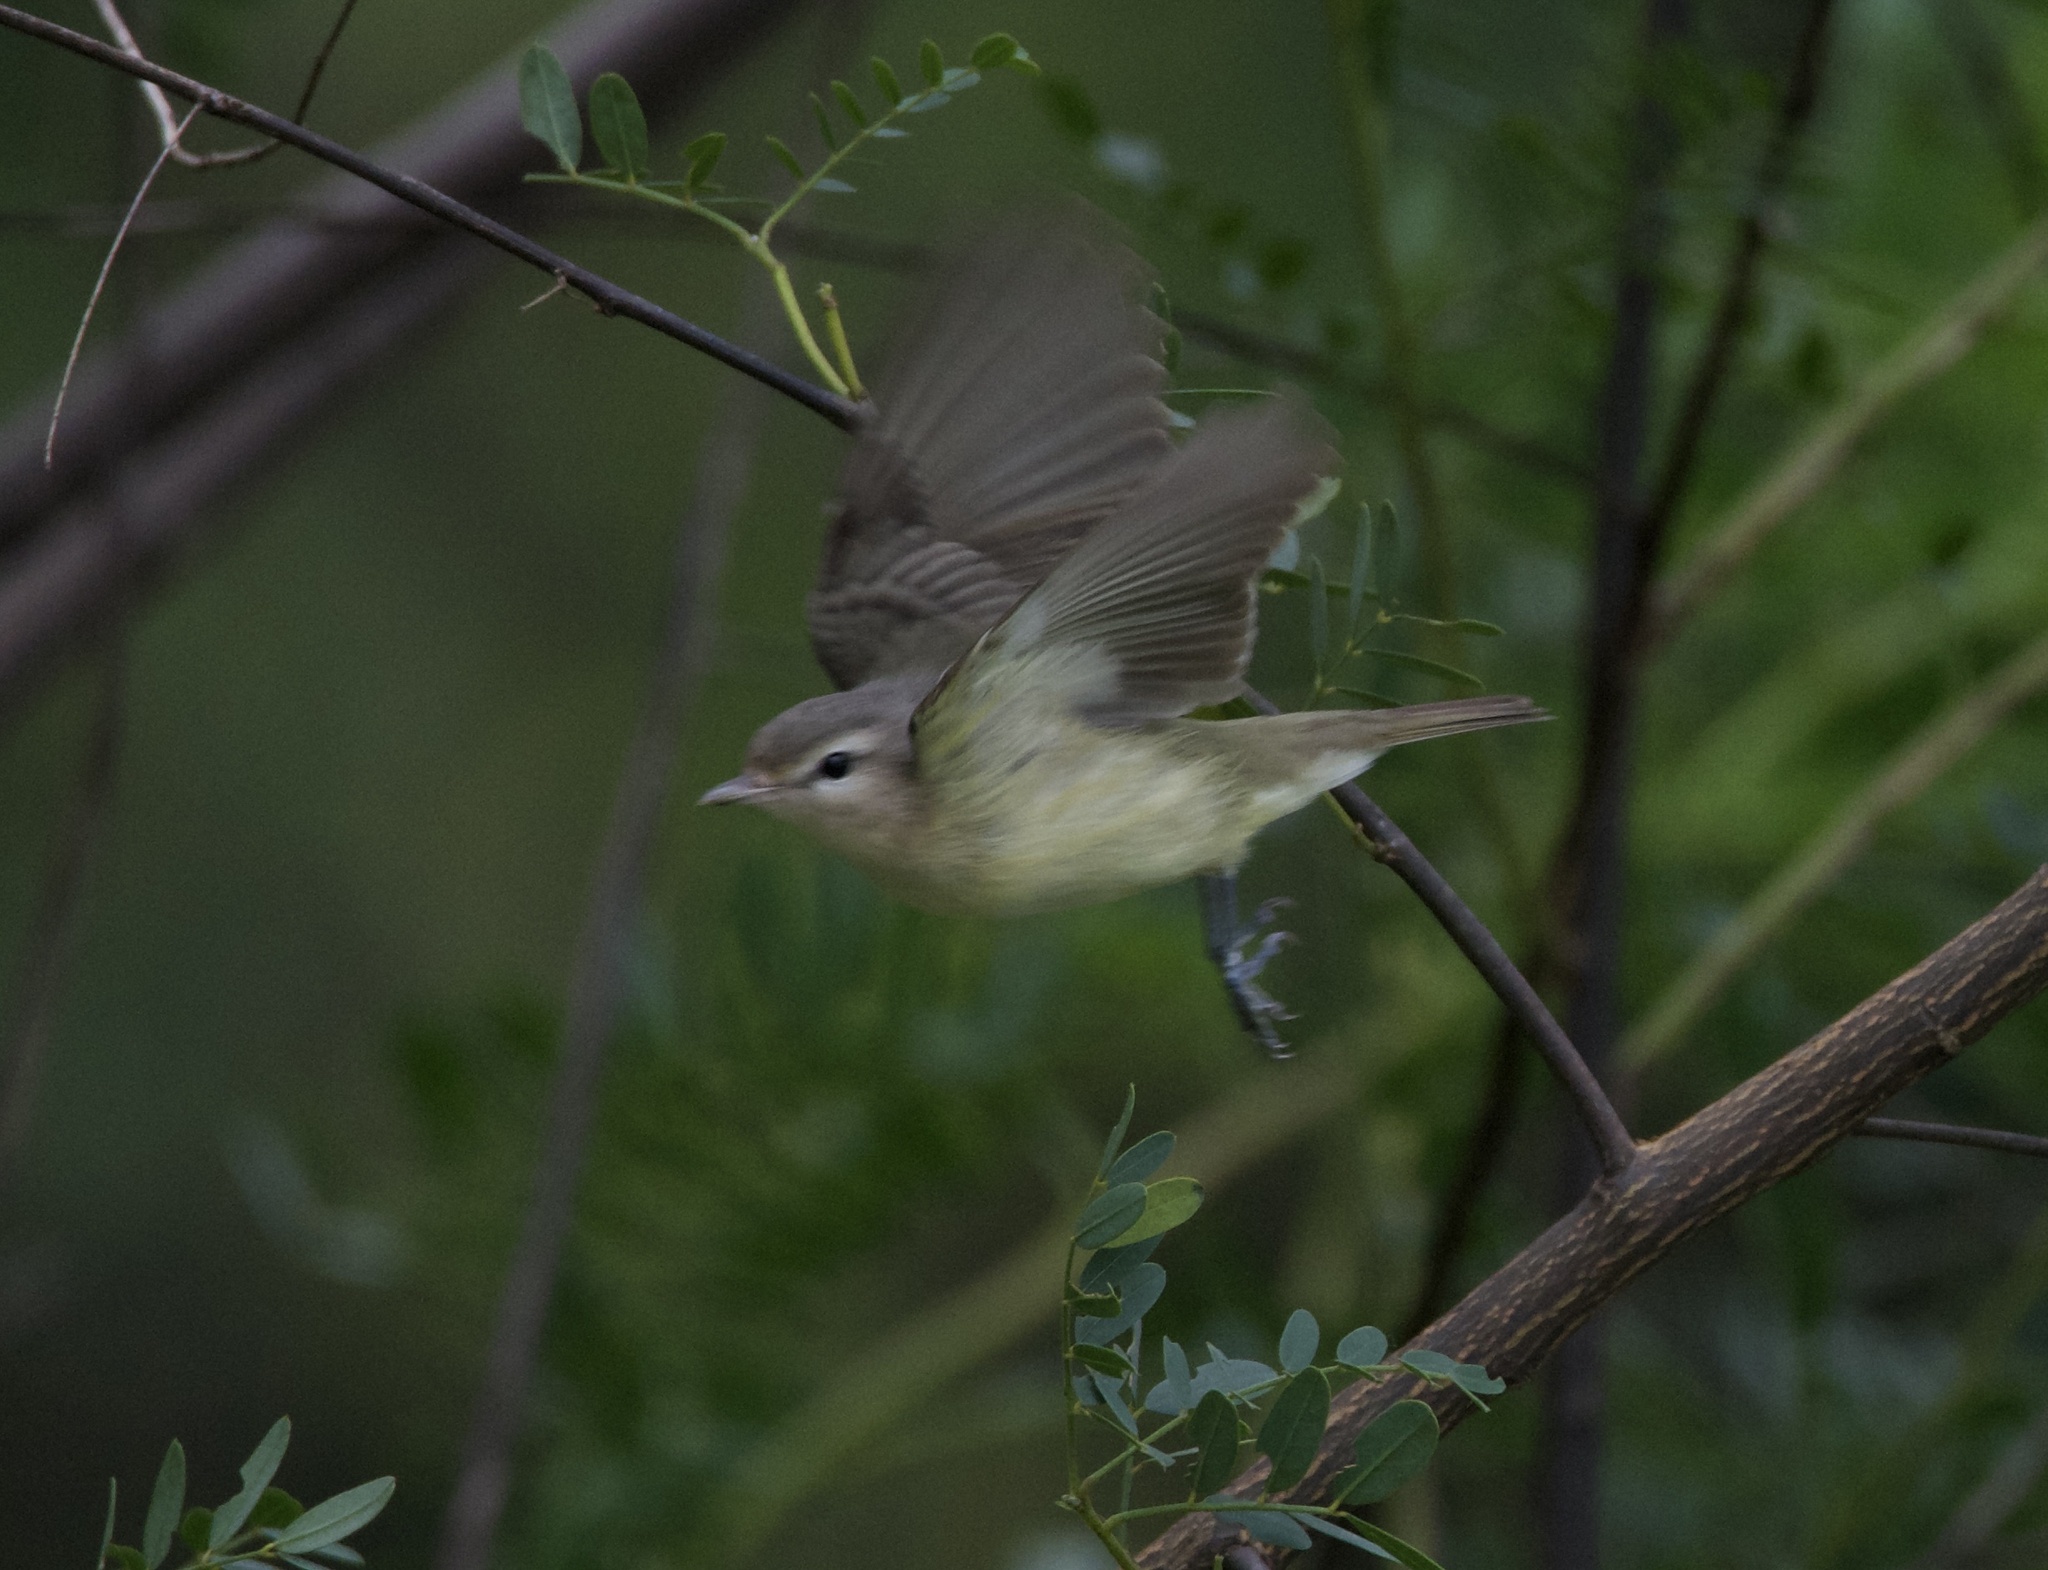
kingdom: Animalia
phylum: Chordata
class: Aves
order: Passeriformes
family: Vireonidae
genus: Vireo
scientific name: Vireo gilvus
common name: Warbling vireo
